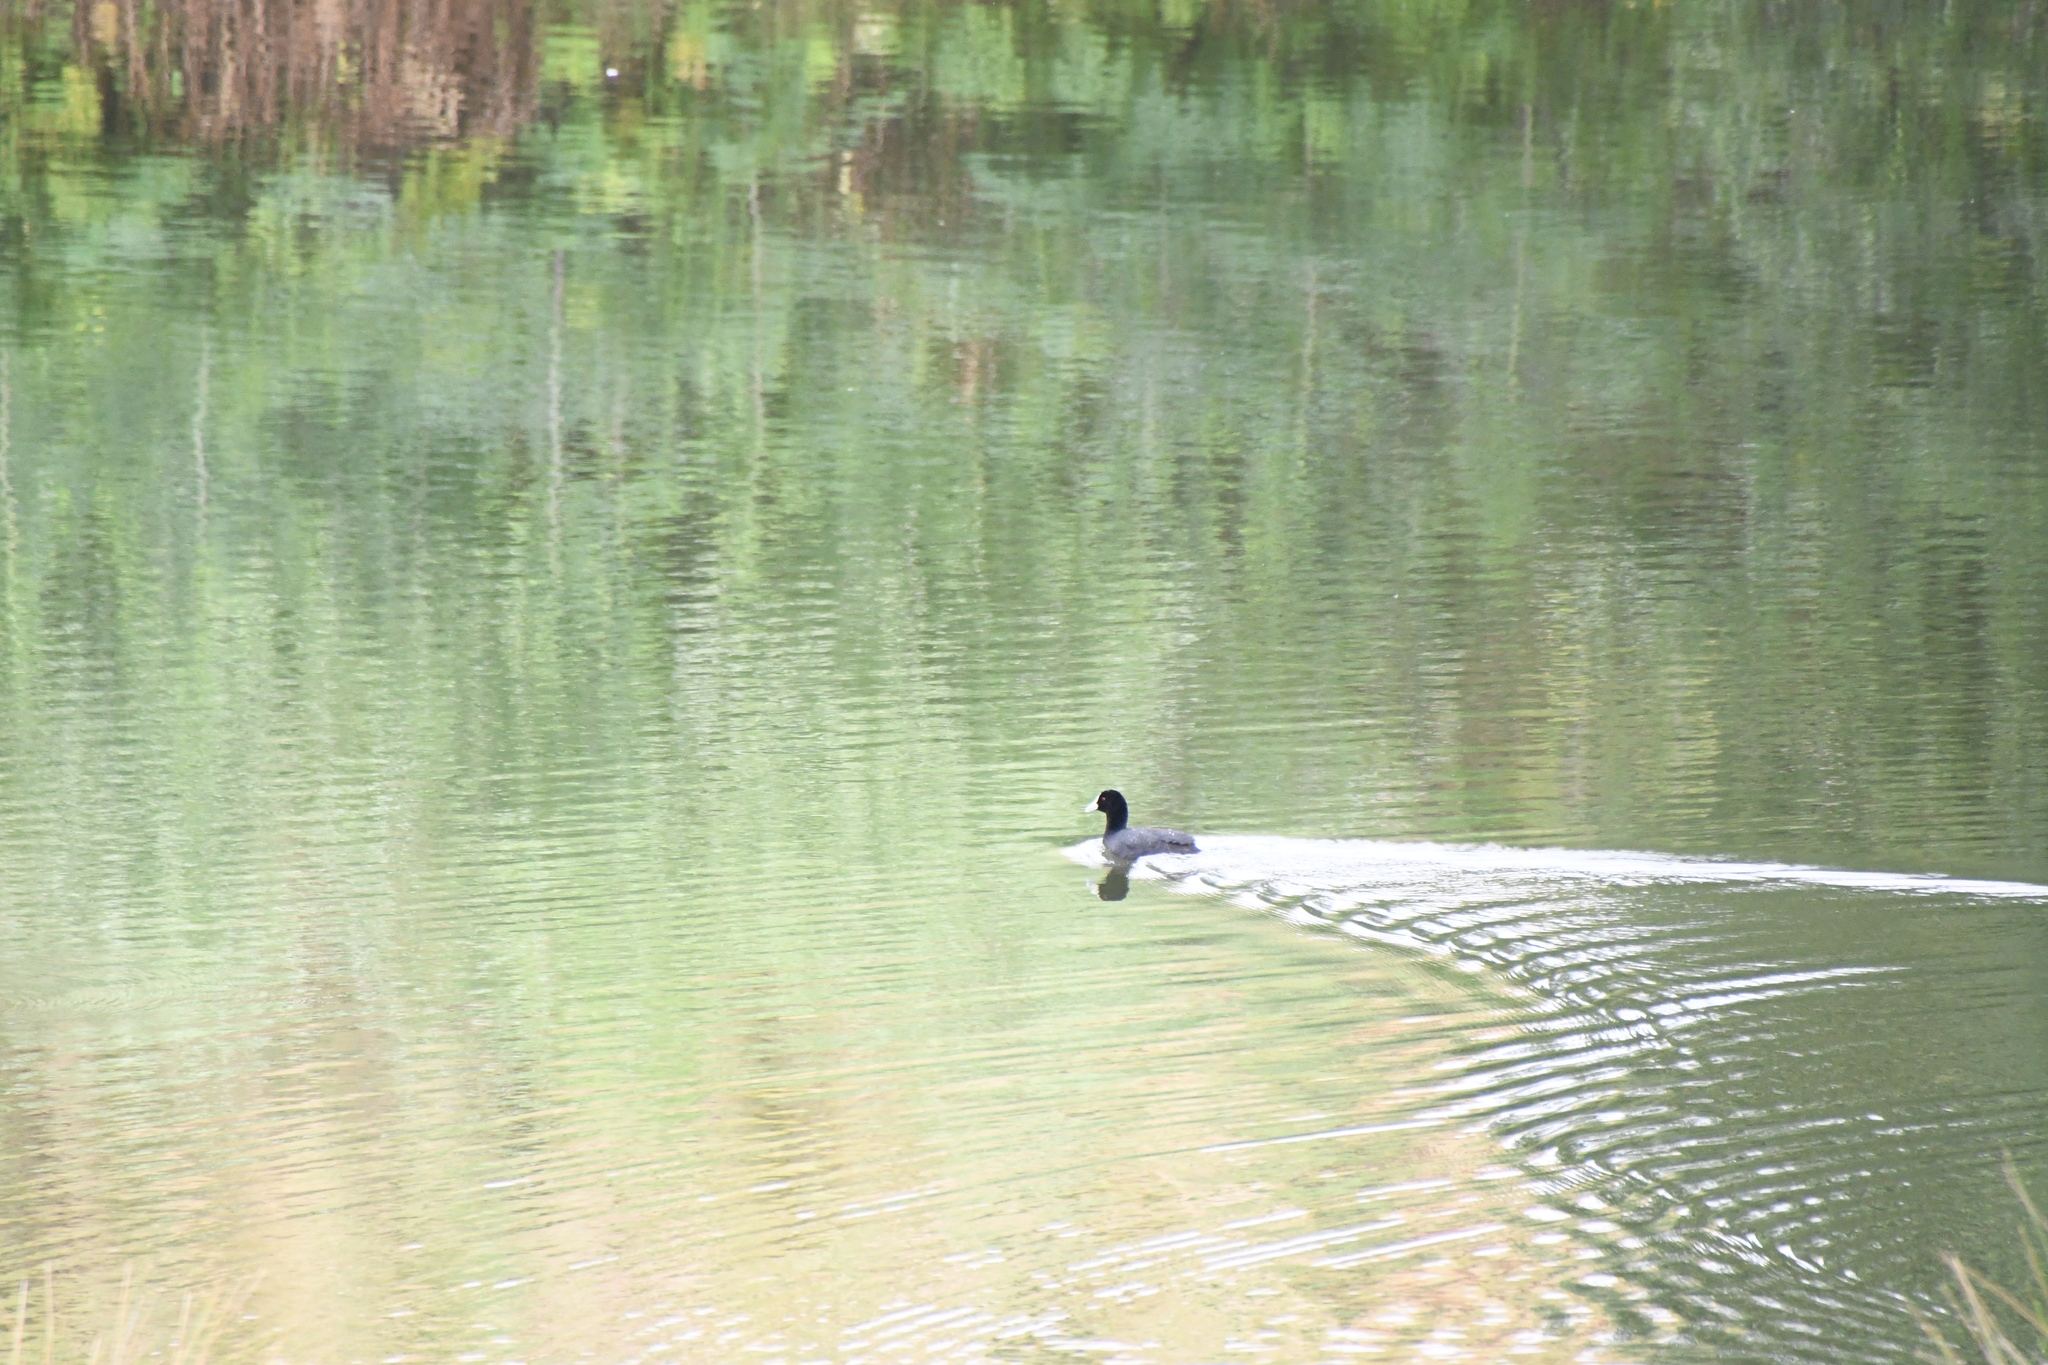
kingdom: Animalia
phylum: Chordata
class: Aves
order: Gruiformes
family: Rallidae
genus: Fulica
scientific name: Fulica atra
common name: Eurasian coot
